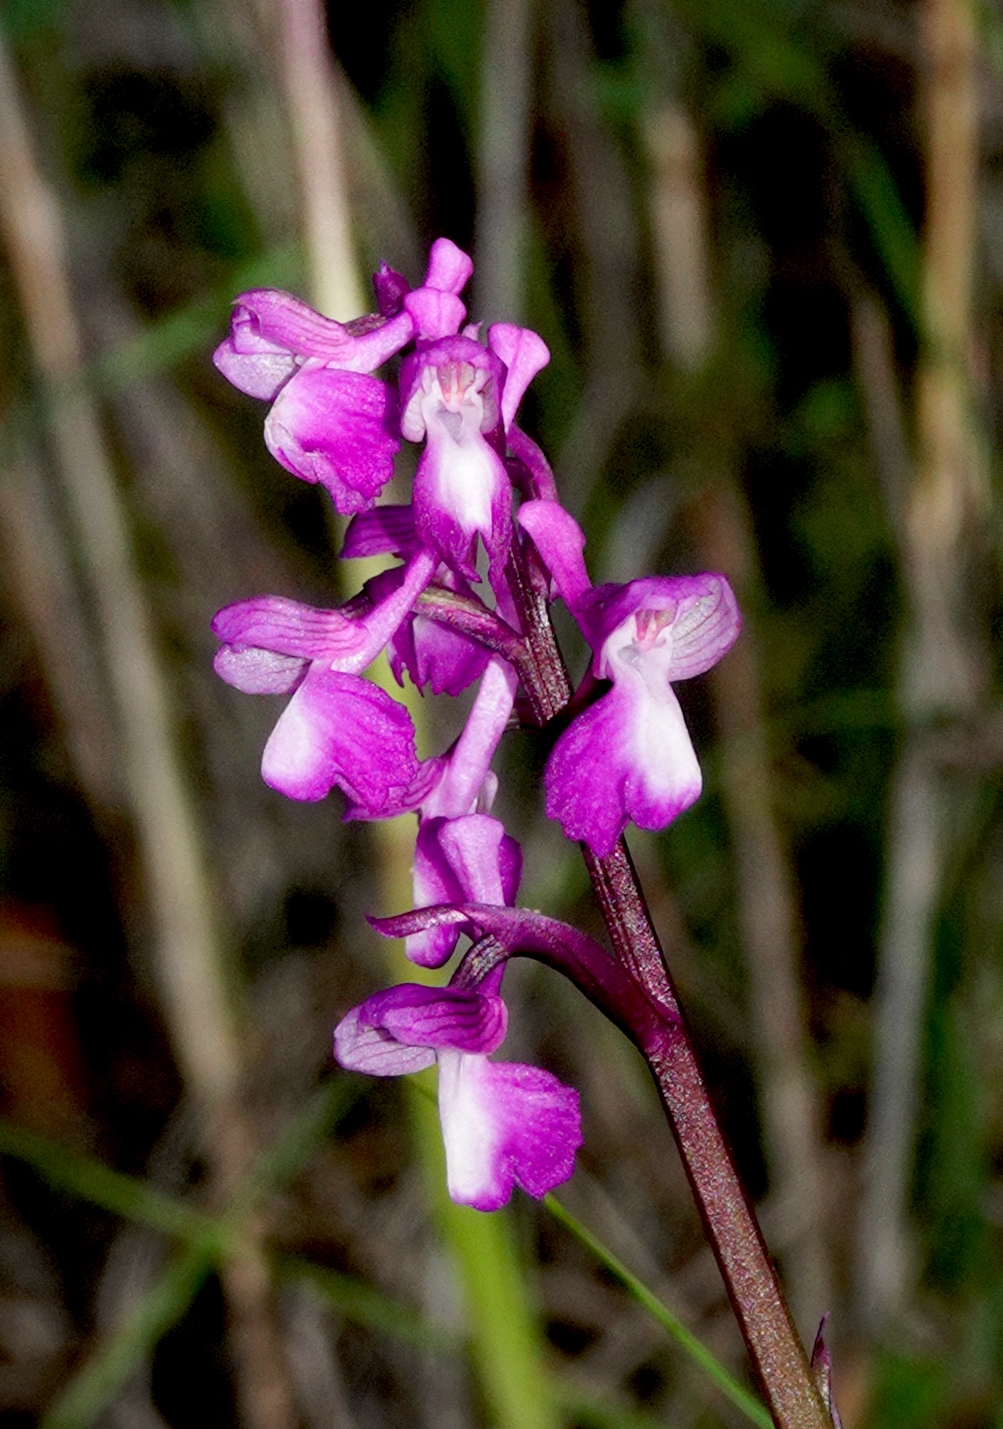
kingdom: Plantae
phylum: Tracheophyta
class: Liliopsida
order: Asparagales
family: Orchidaceae
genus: Anacamptis
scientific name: Anacamptis morio
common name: Green-winged orchid
